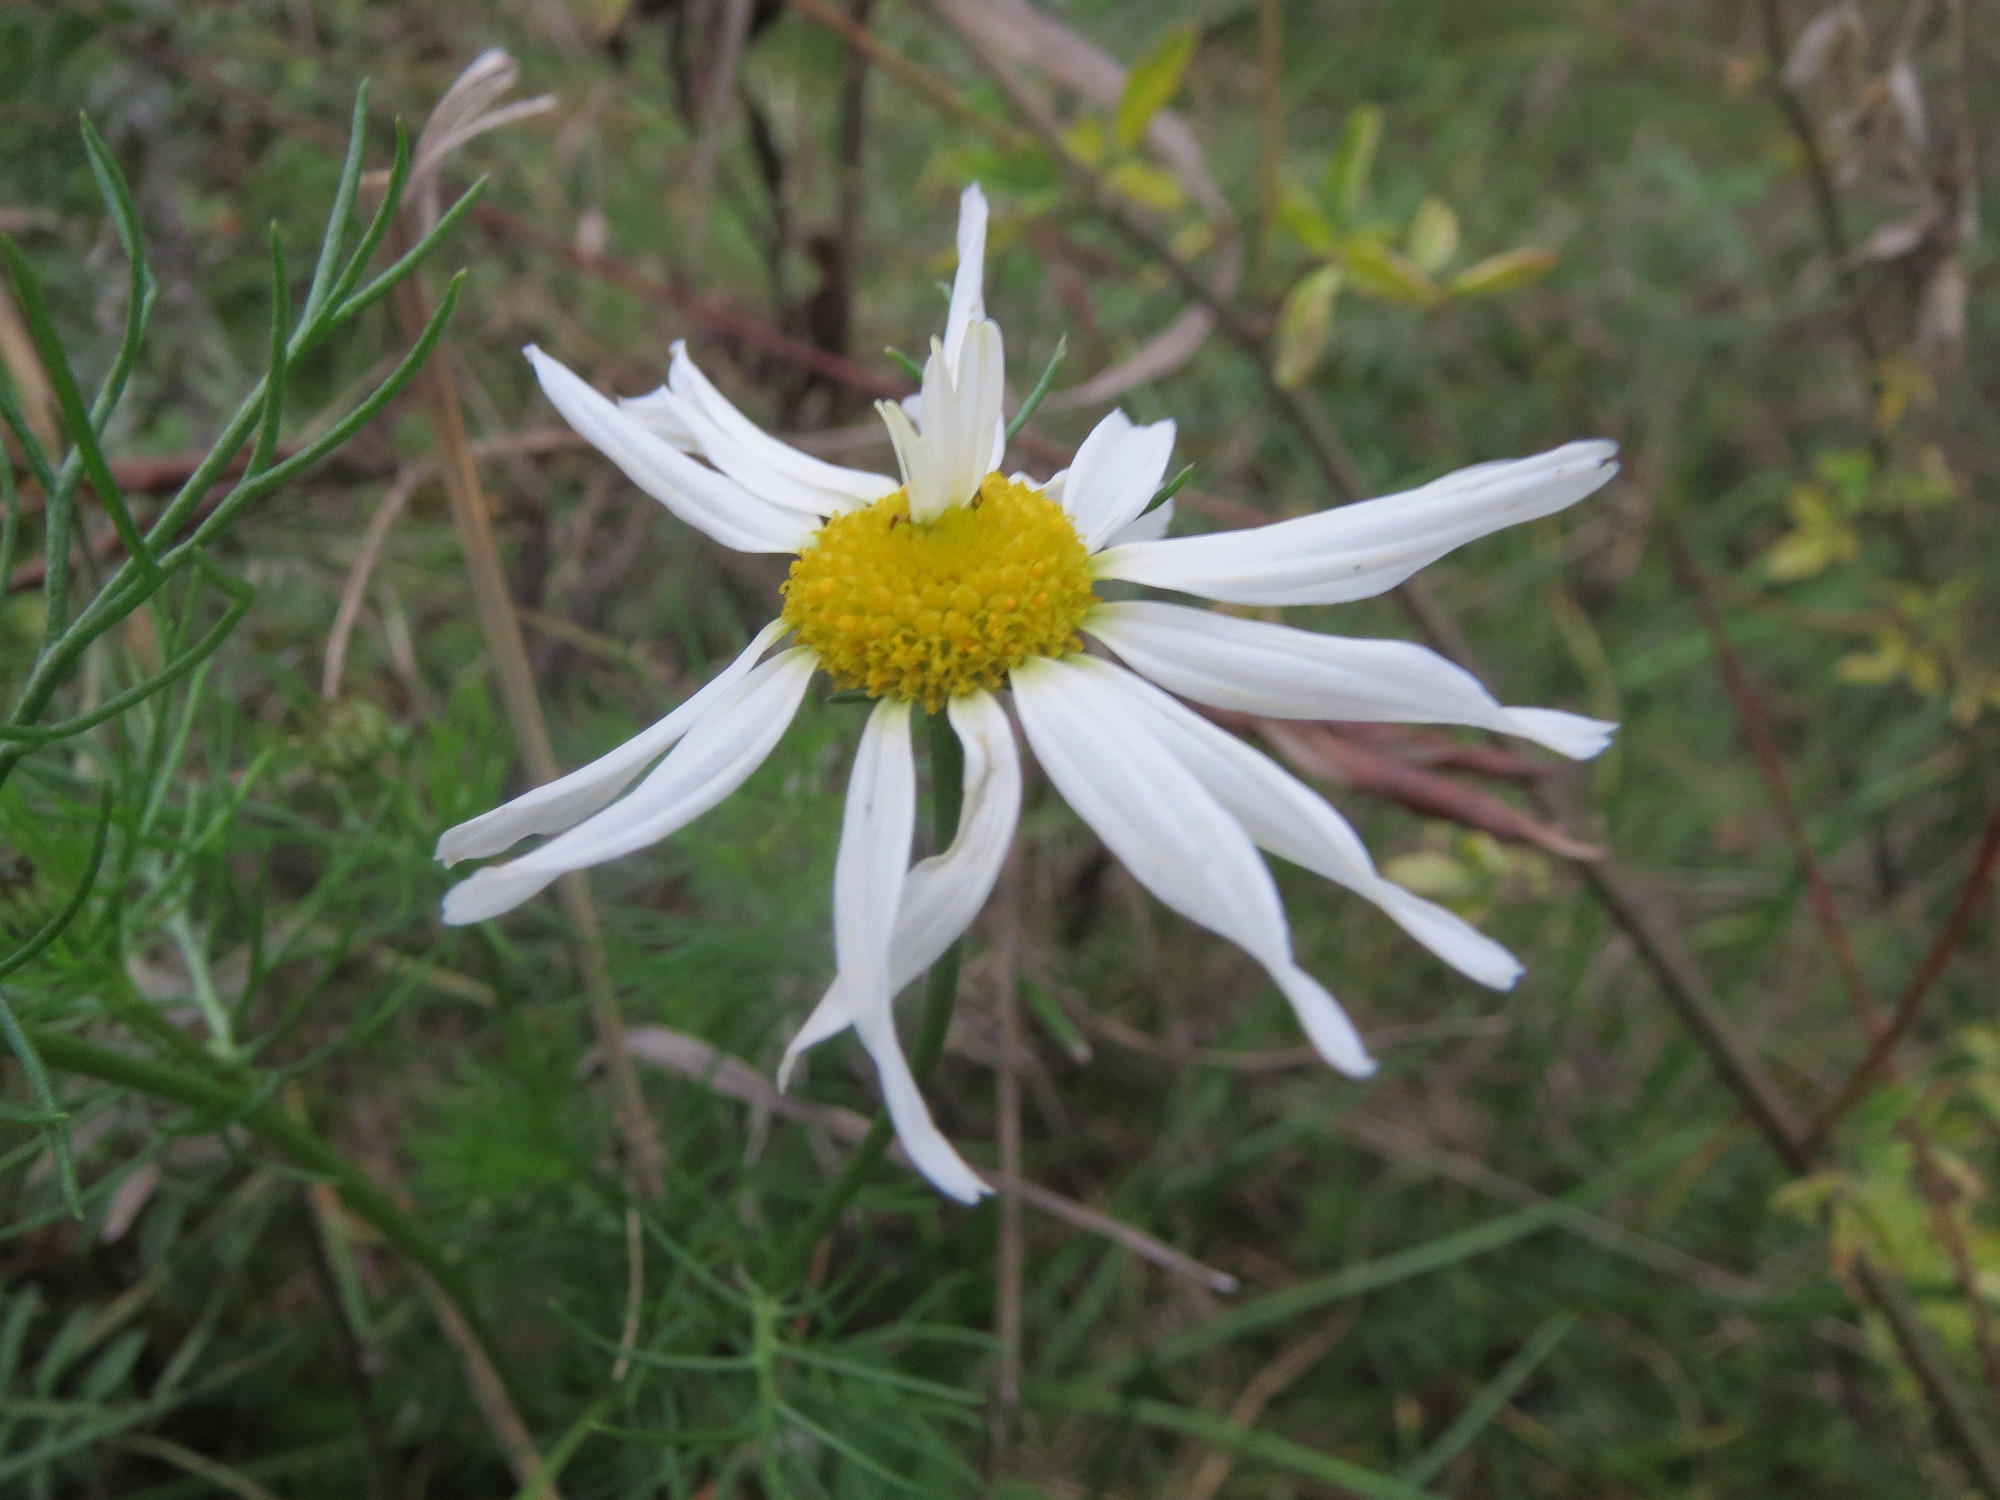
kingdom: Plantae
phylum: Tracheophyta
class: Magnoliopsida
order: Asterales
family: Asteraceae
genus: Tripleurospermum
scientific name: Tripleurospermum inodorum
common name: Scentless mayweed
